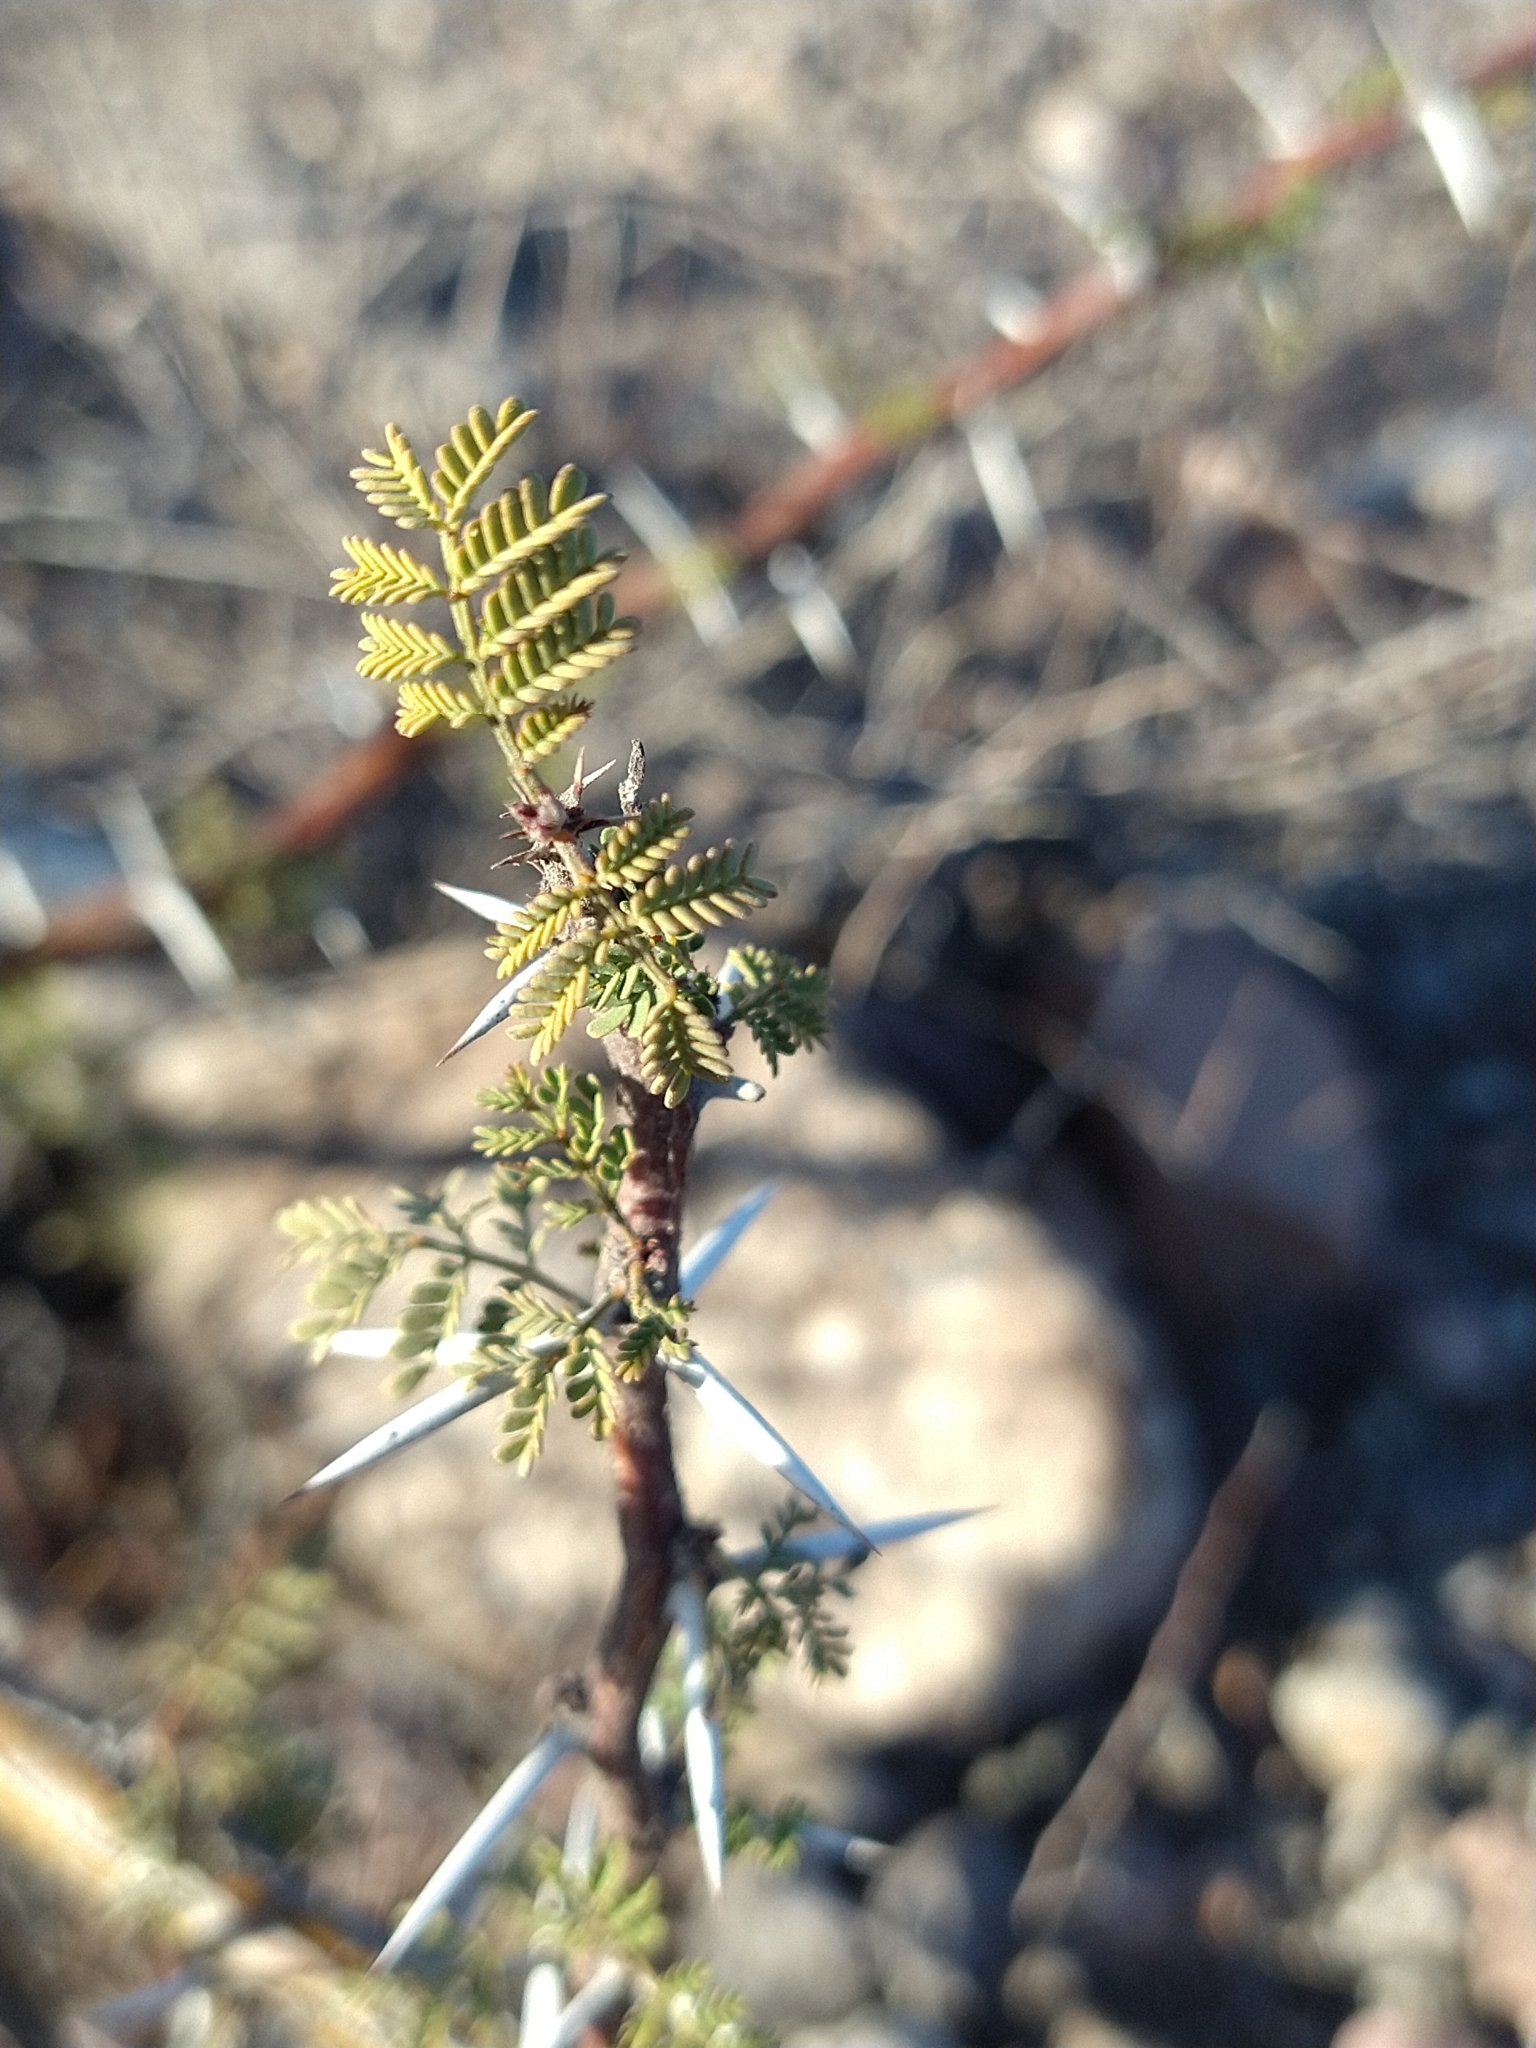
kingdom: Plantae
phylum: Tracheophyta
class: Magnoliopsida
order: Fabales
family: Fabaceae
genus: Vachellia
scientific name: Vachellia pacensis
